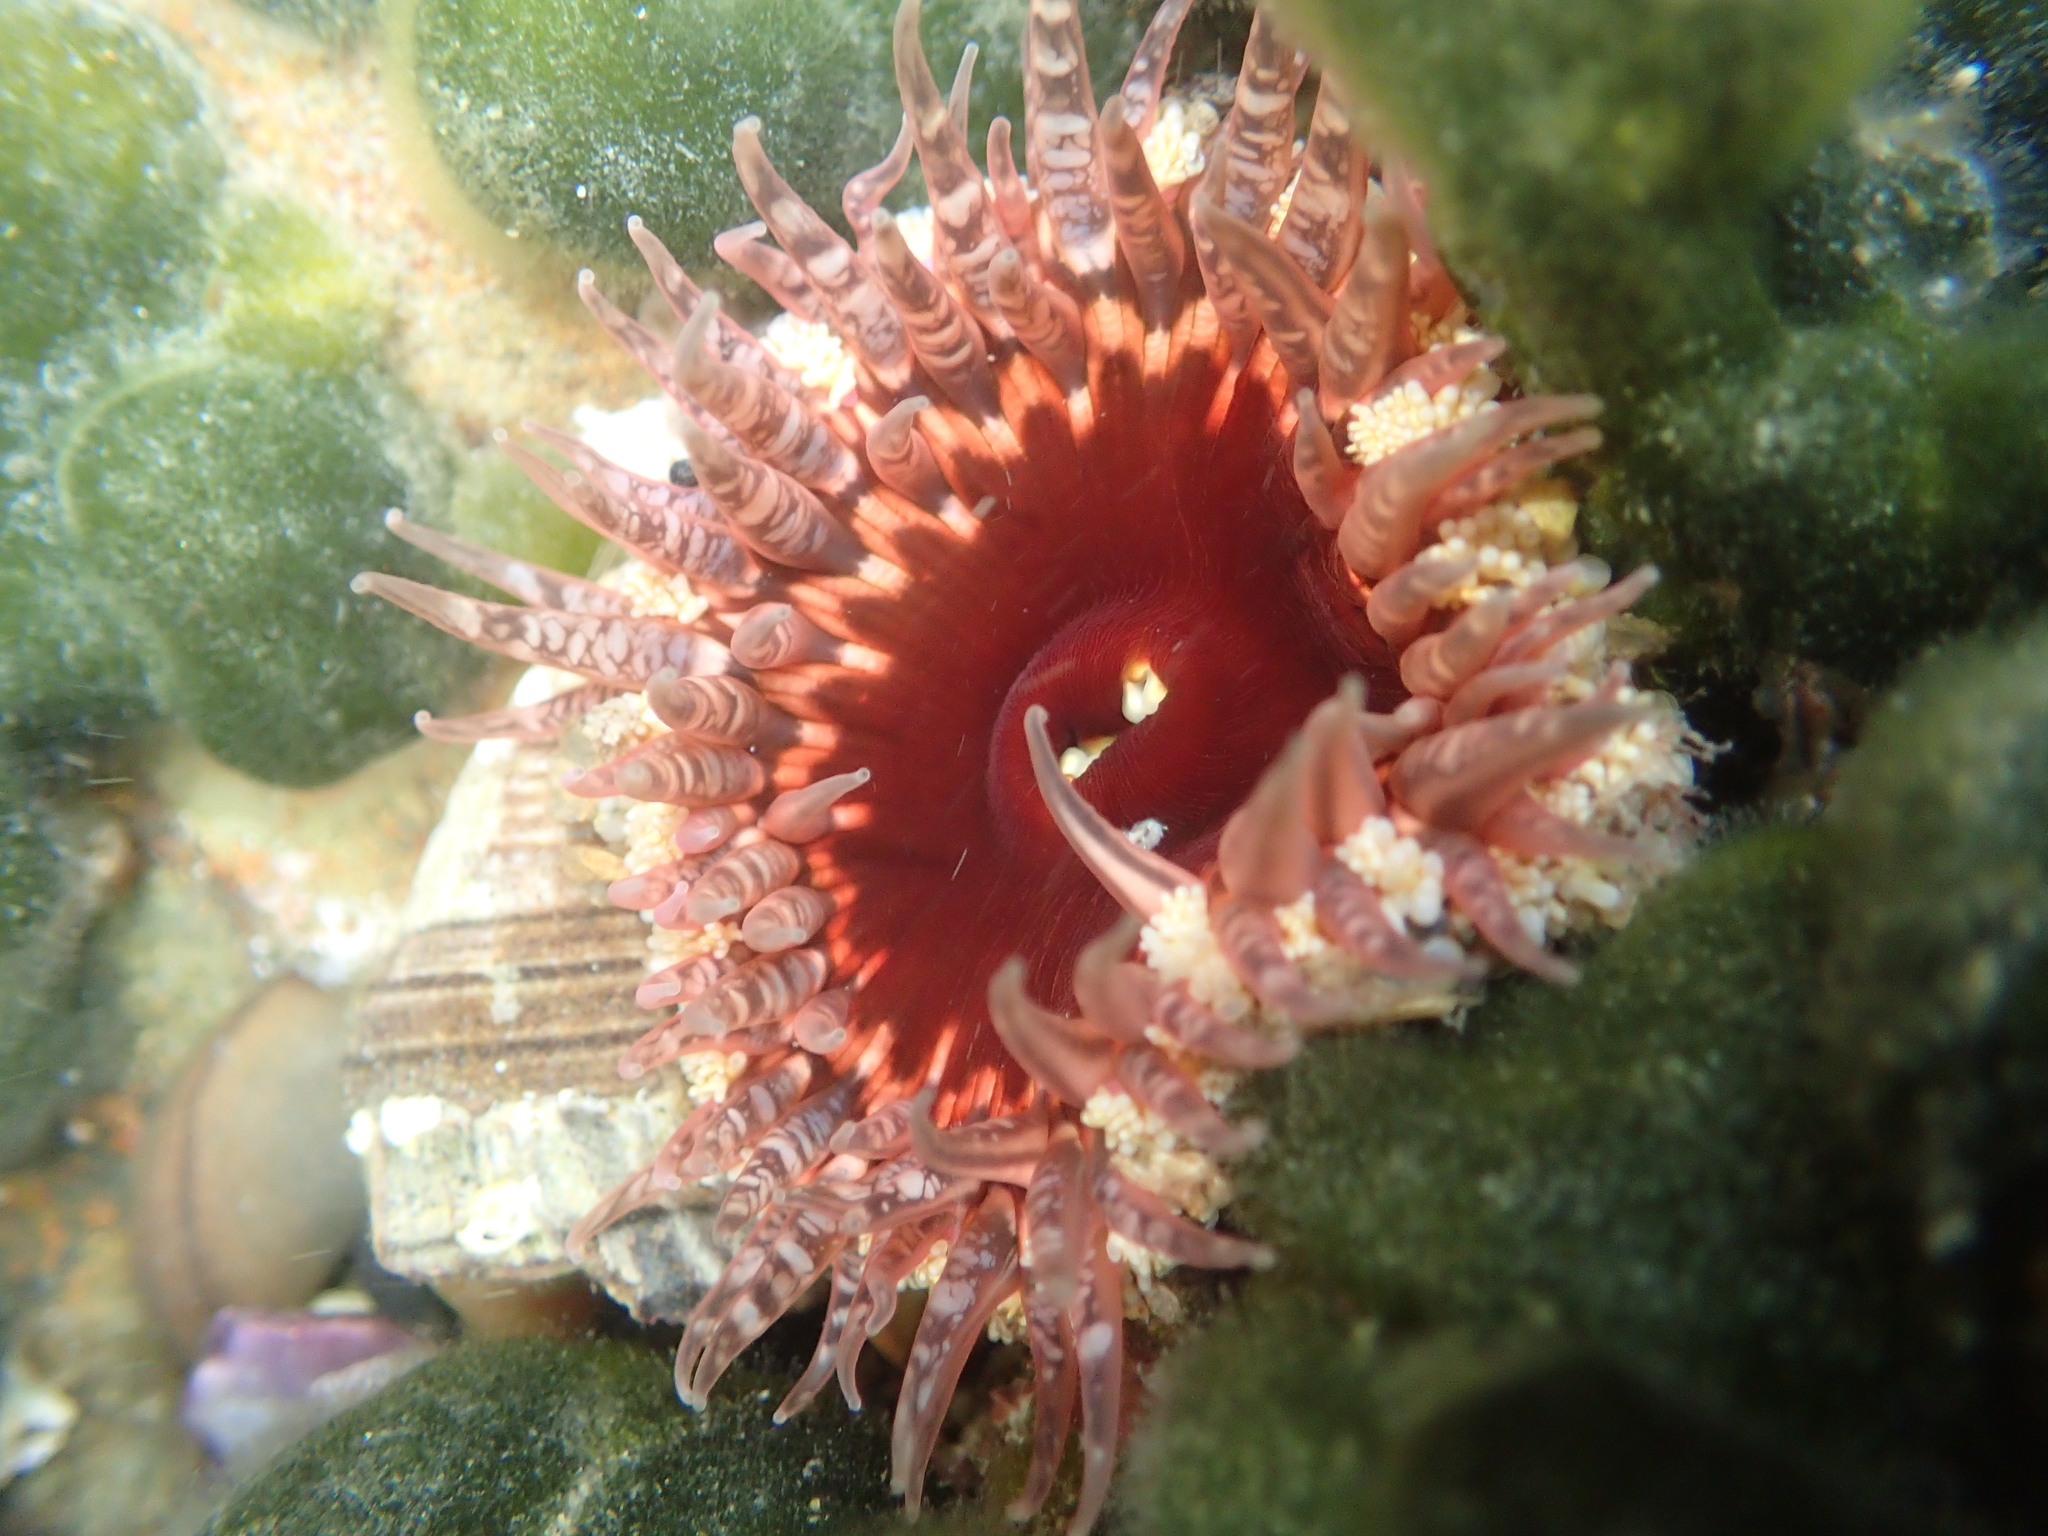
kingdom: Animalia
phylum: Cnidaria
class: Anthozoa
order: Actiniaria
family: Actiniidae
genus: Oulactis
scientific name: Oulactis muscosa
